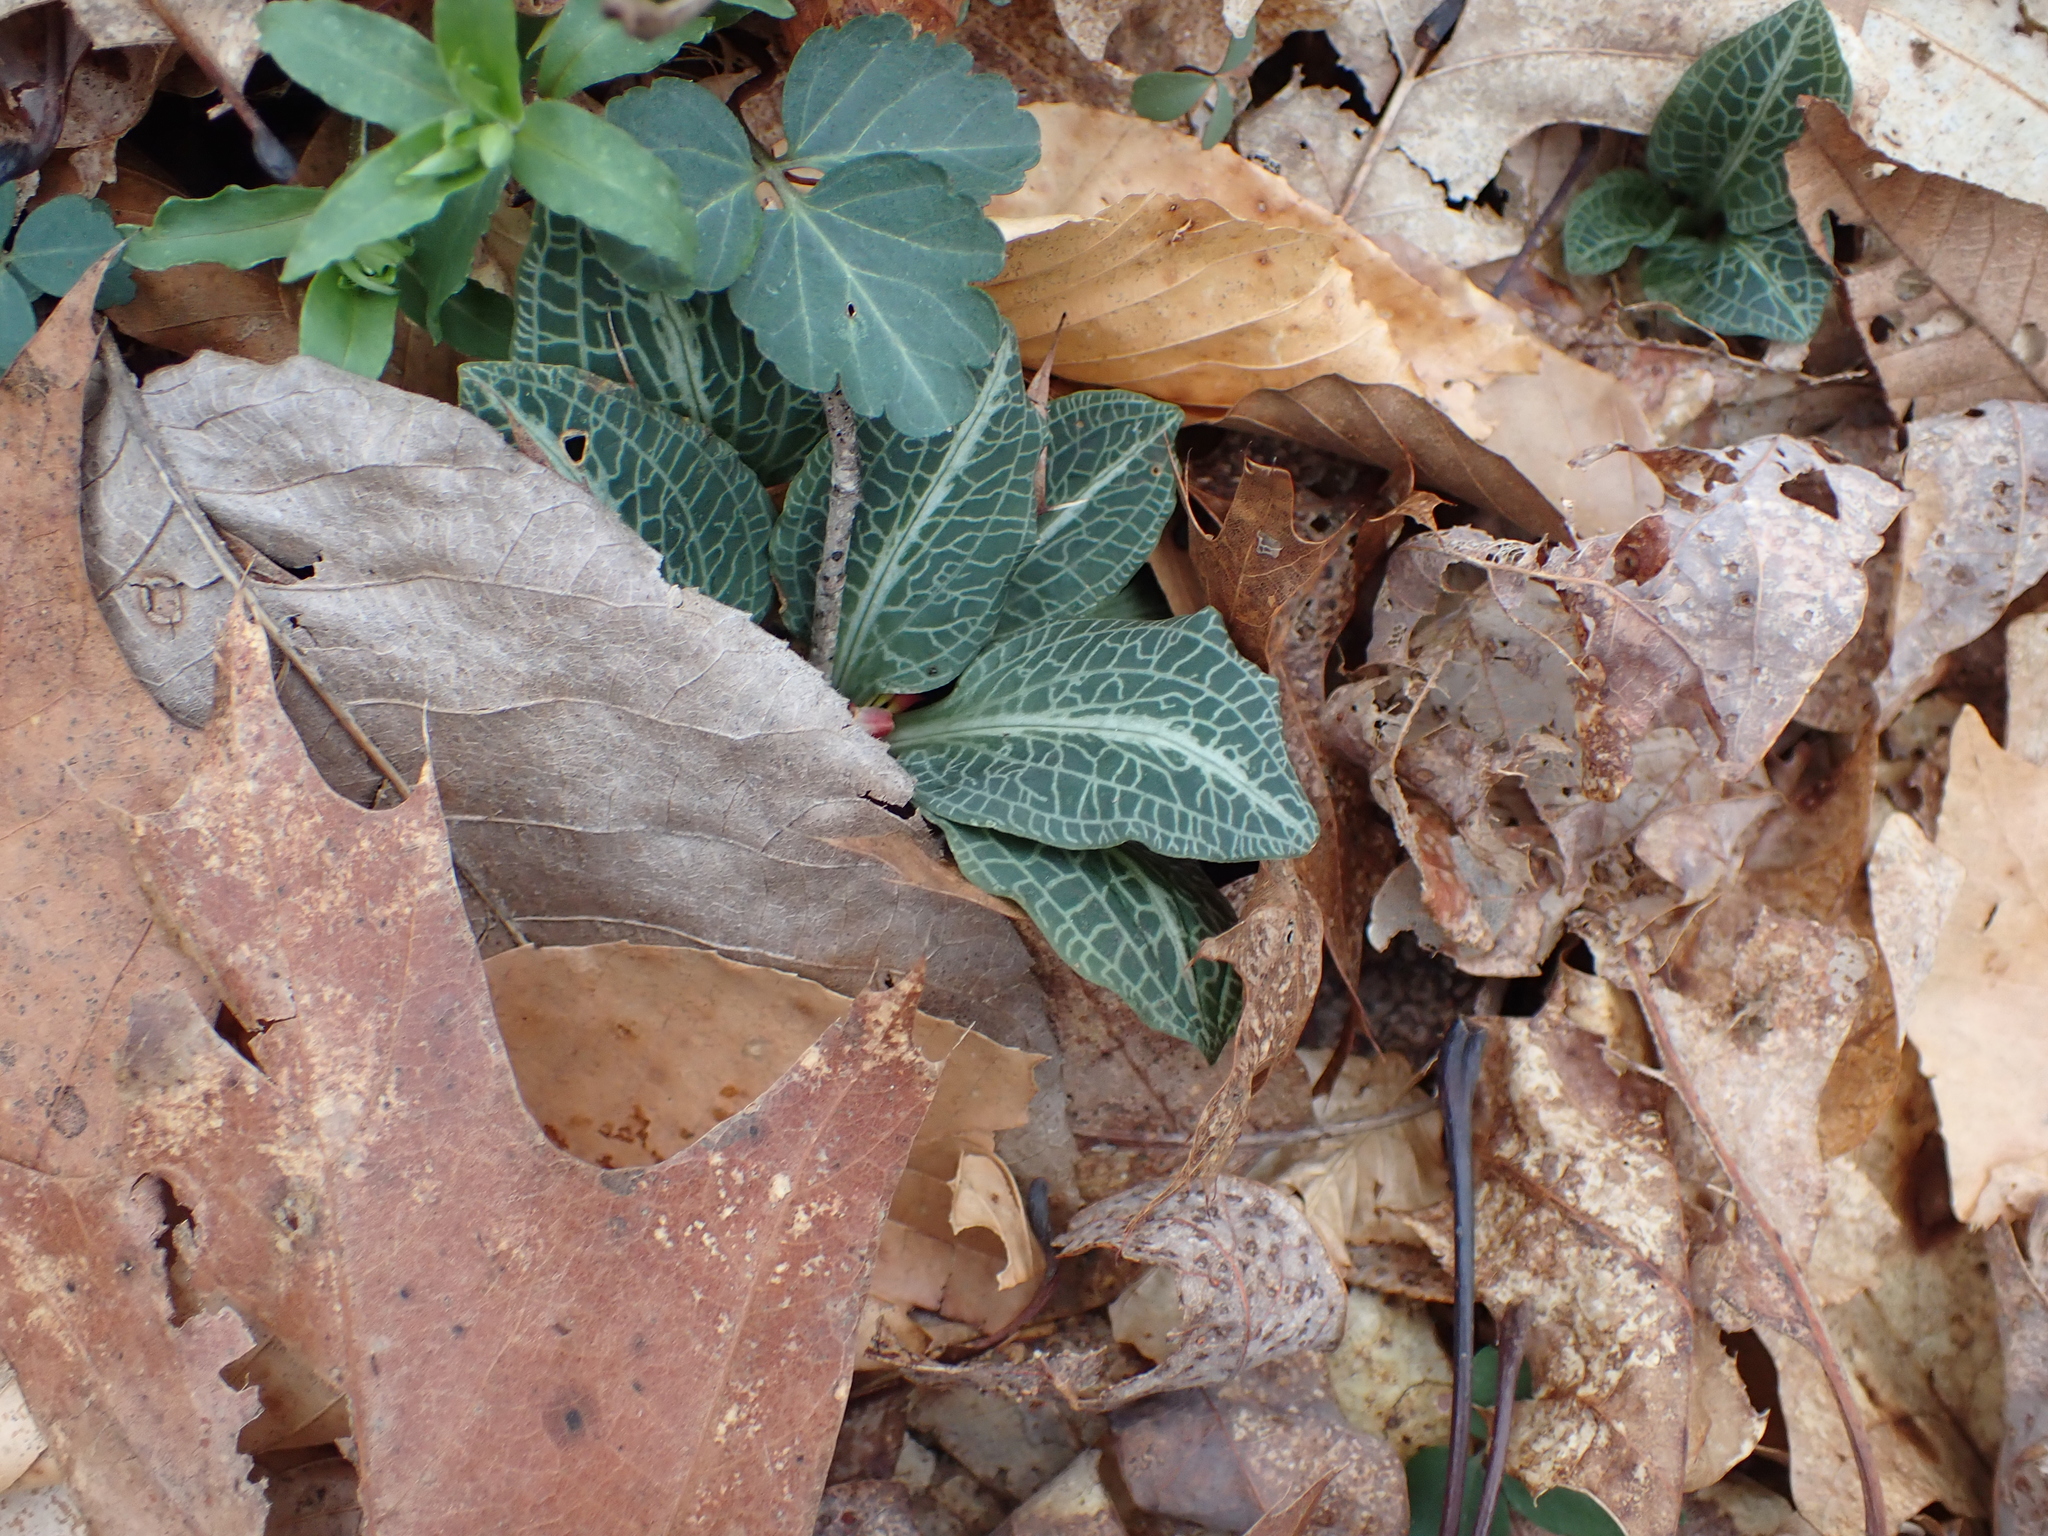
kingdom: Plantae
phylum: Tracheophyta
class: Liliopsida
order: Asparagales
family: Orchidaceae
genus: Goodyera
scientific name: Goodyera pubescens
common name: Downy rattlesnake-plantain
